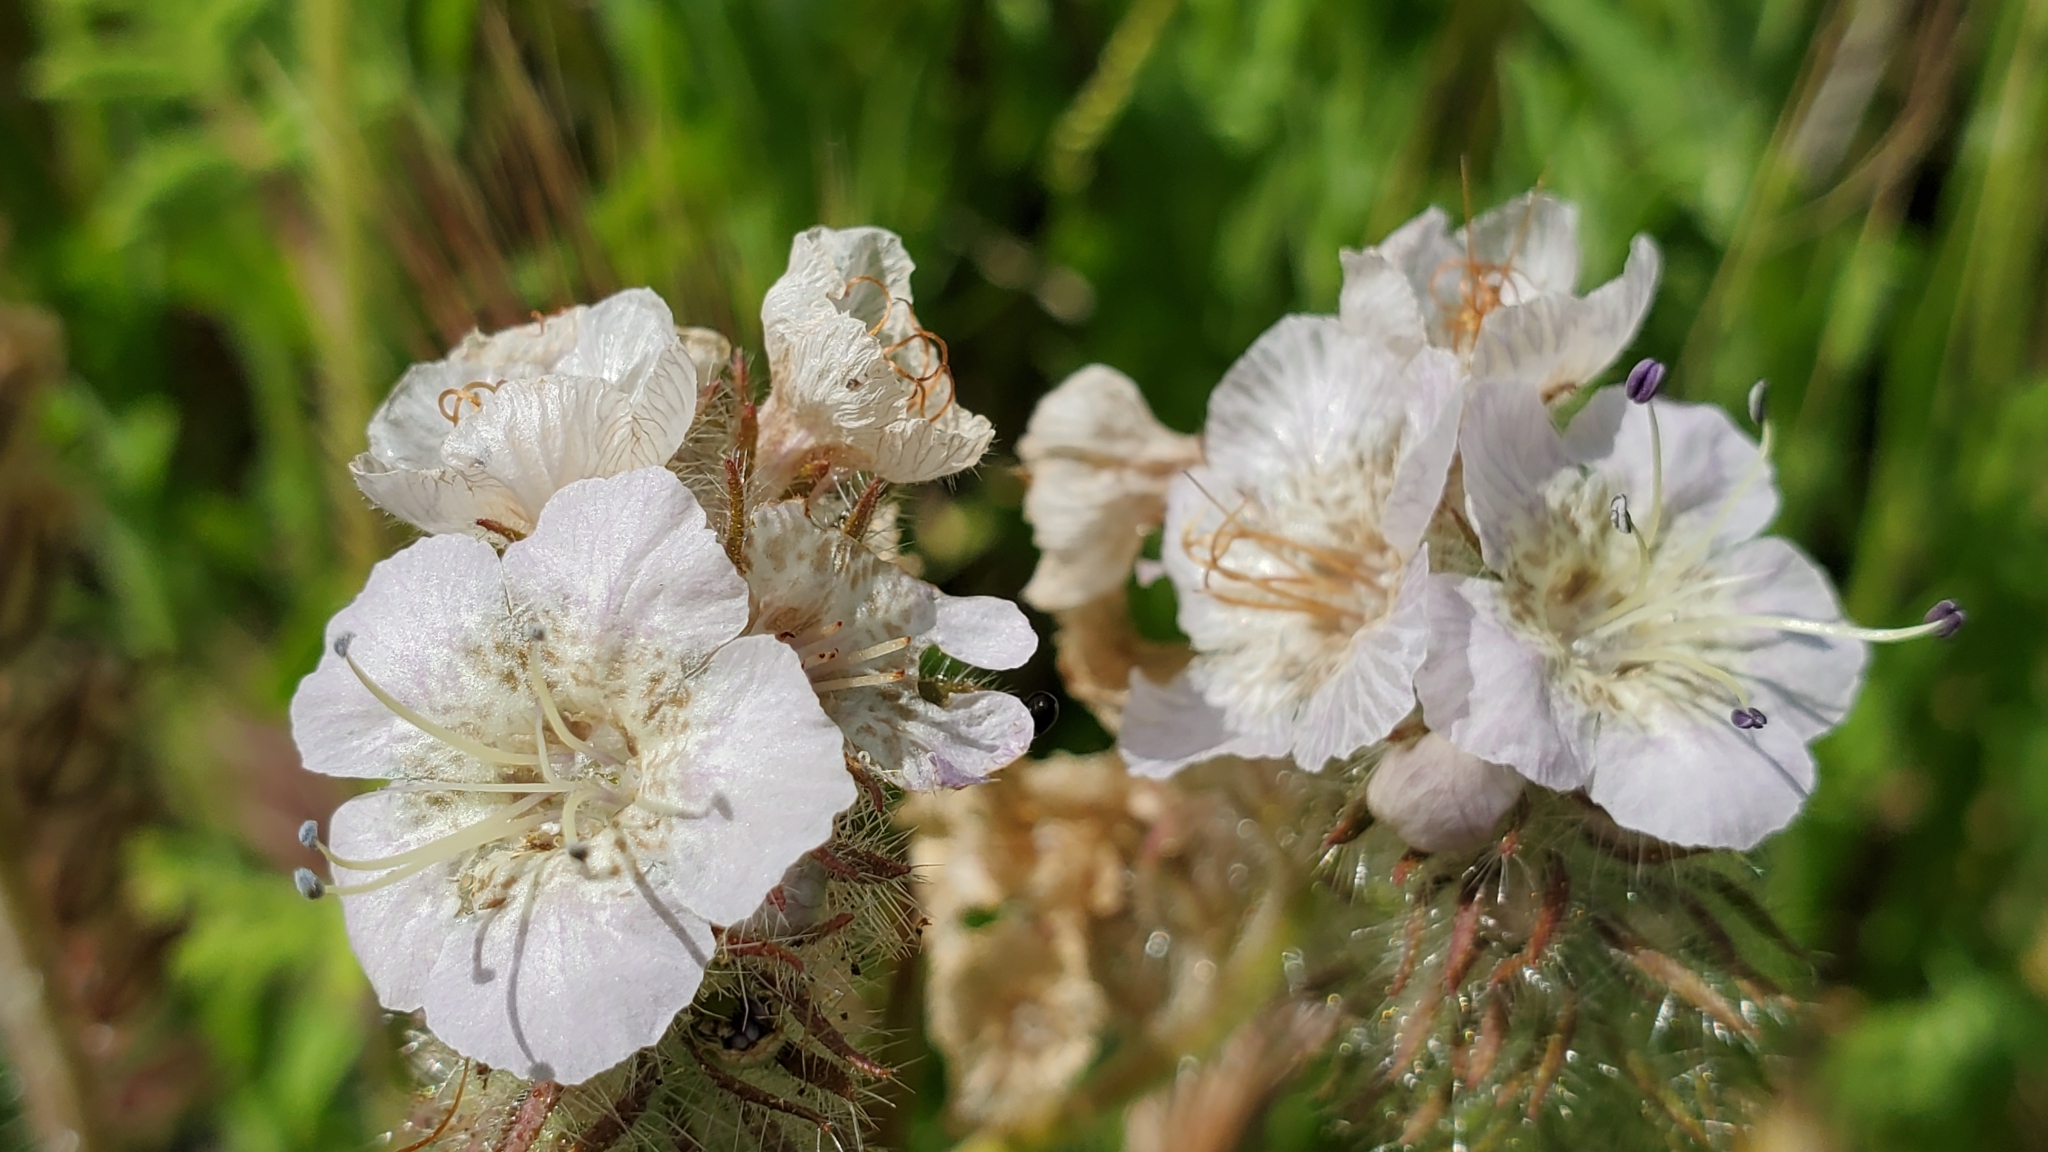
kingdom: Plantae
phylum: Tracheophyta
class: Magnoliopsida
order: Boraginales
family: Hydrophyllaceae
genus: Phacelia
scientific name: Phacelia cicutaria
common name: Caterpillar phacelia
